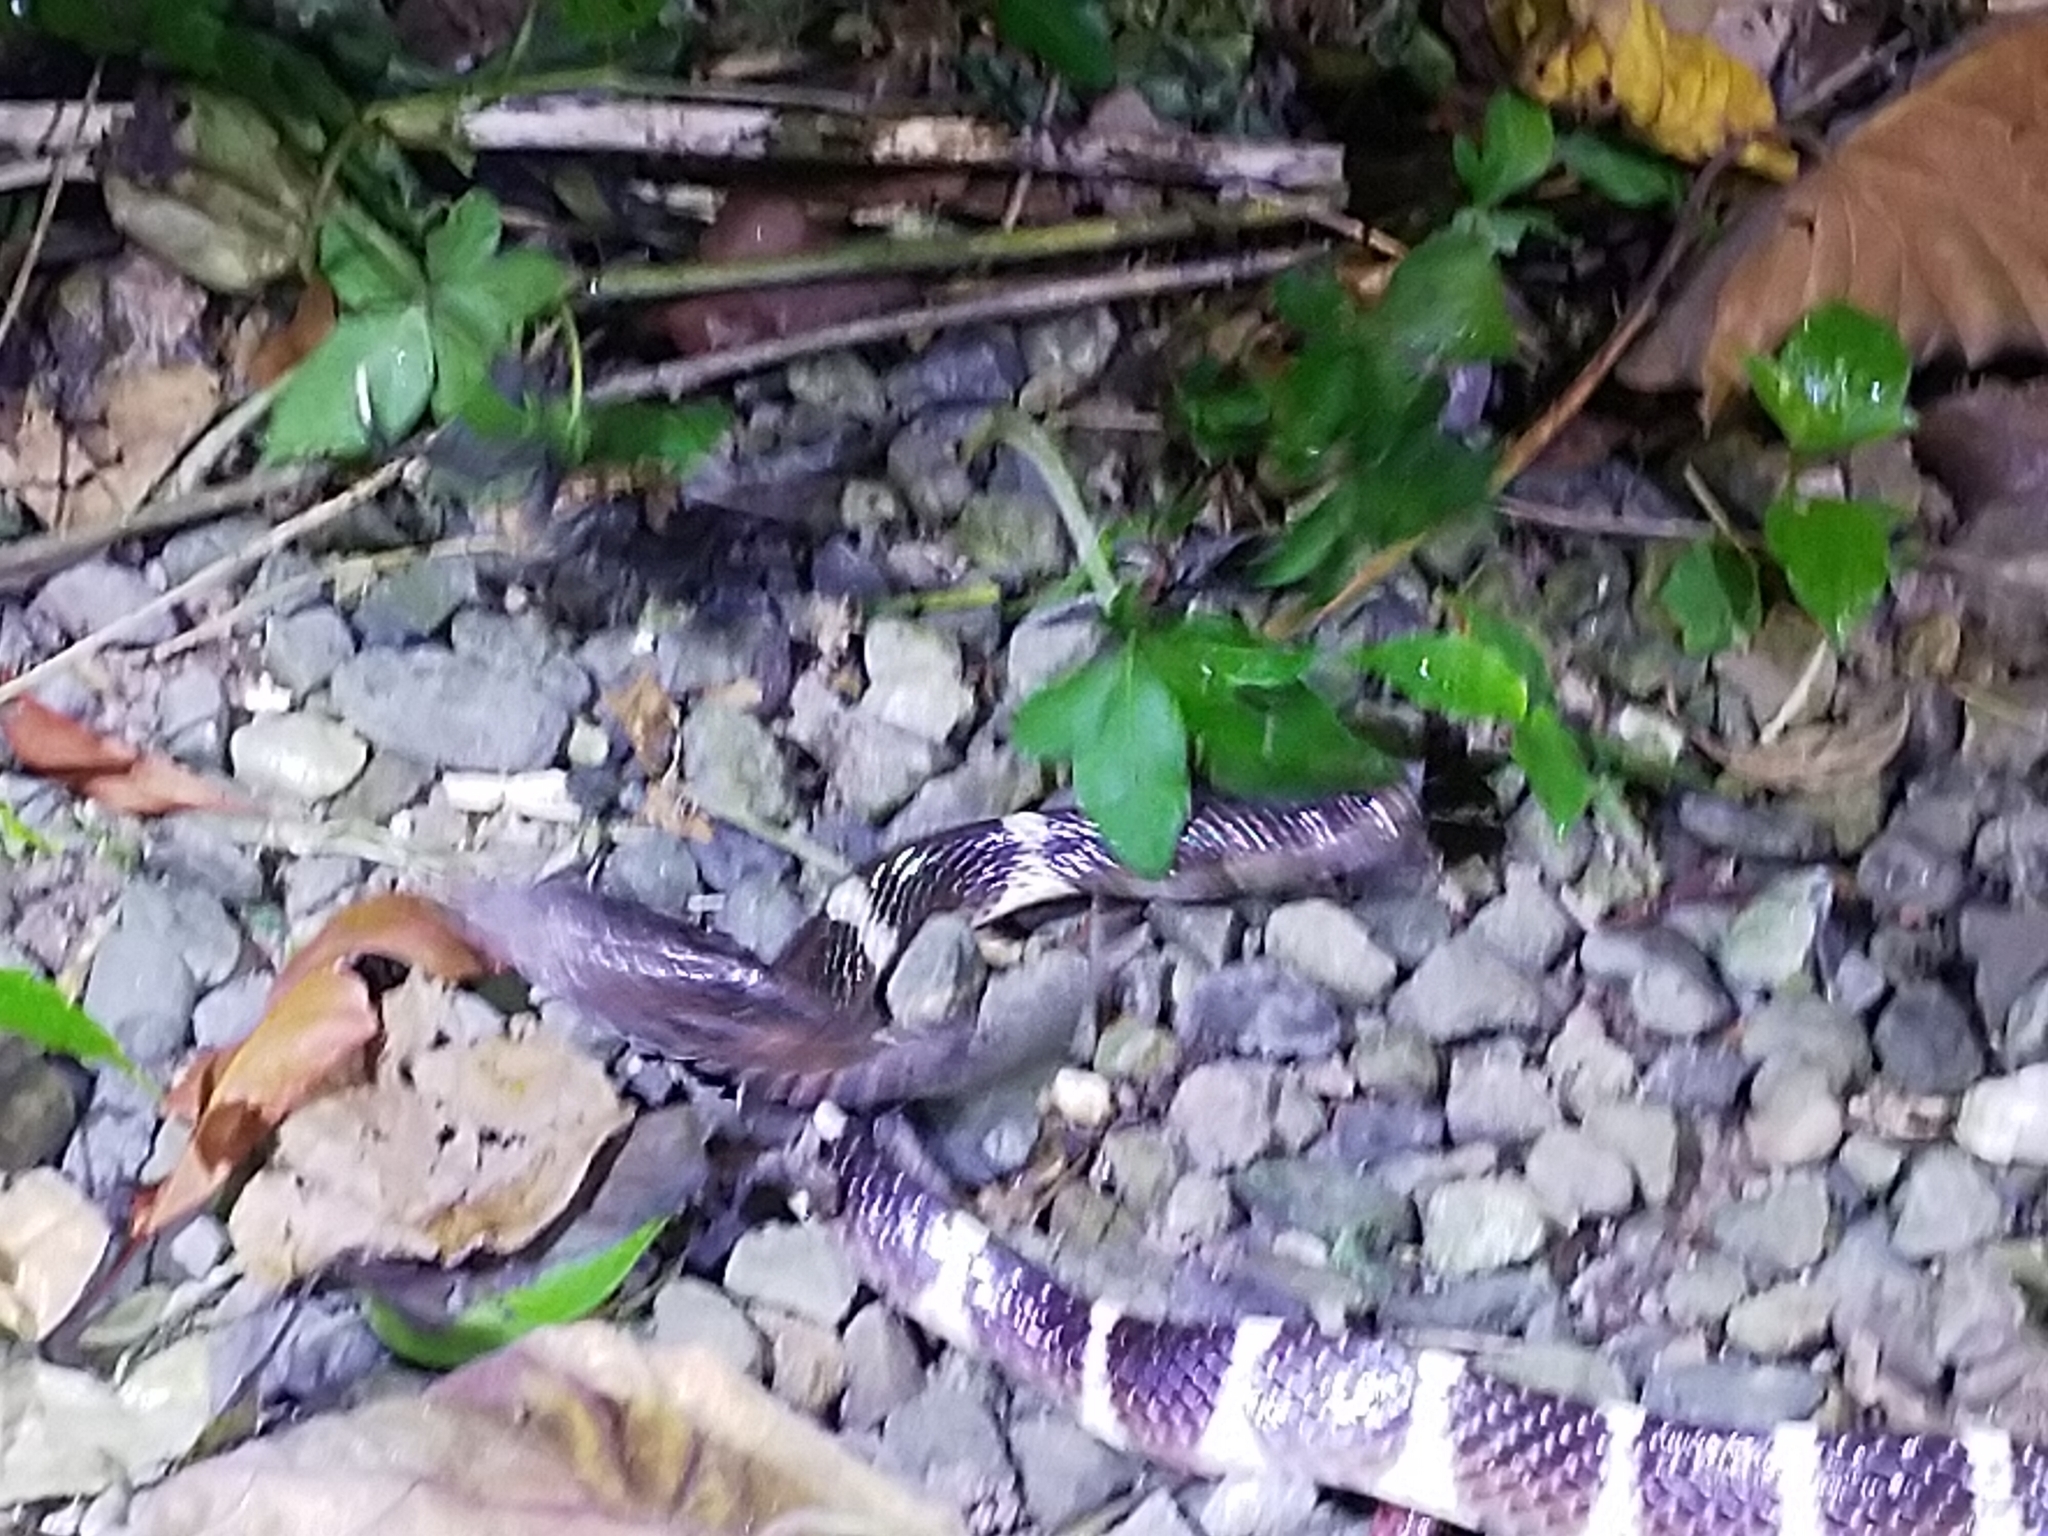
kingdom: Animalia
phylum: Chordata
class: Squamata
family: Elapidae
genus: Bungarus
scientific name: Bungarus multicinctus
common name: Many-banded krait
